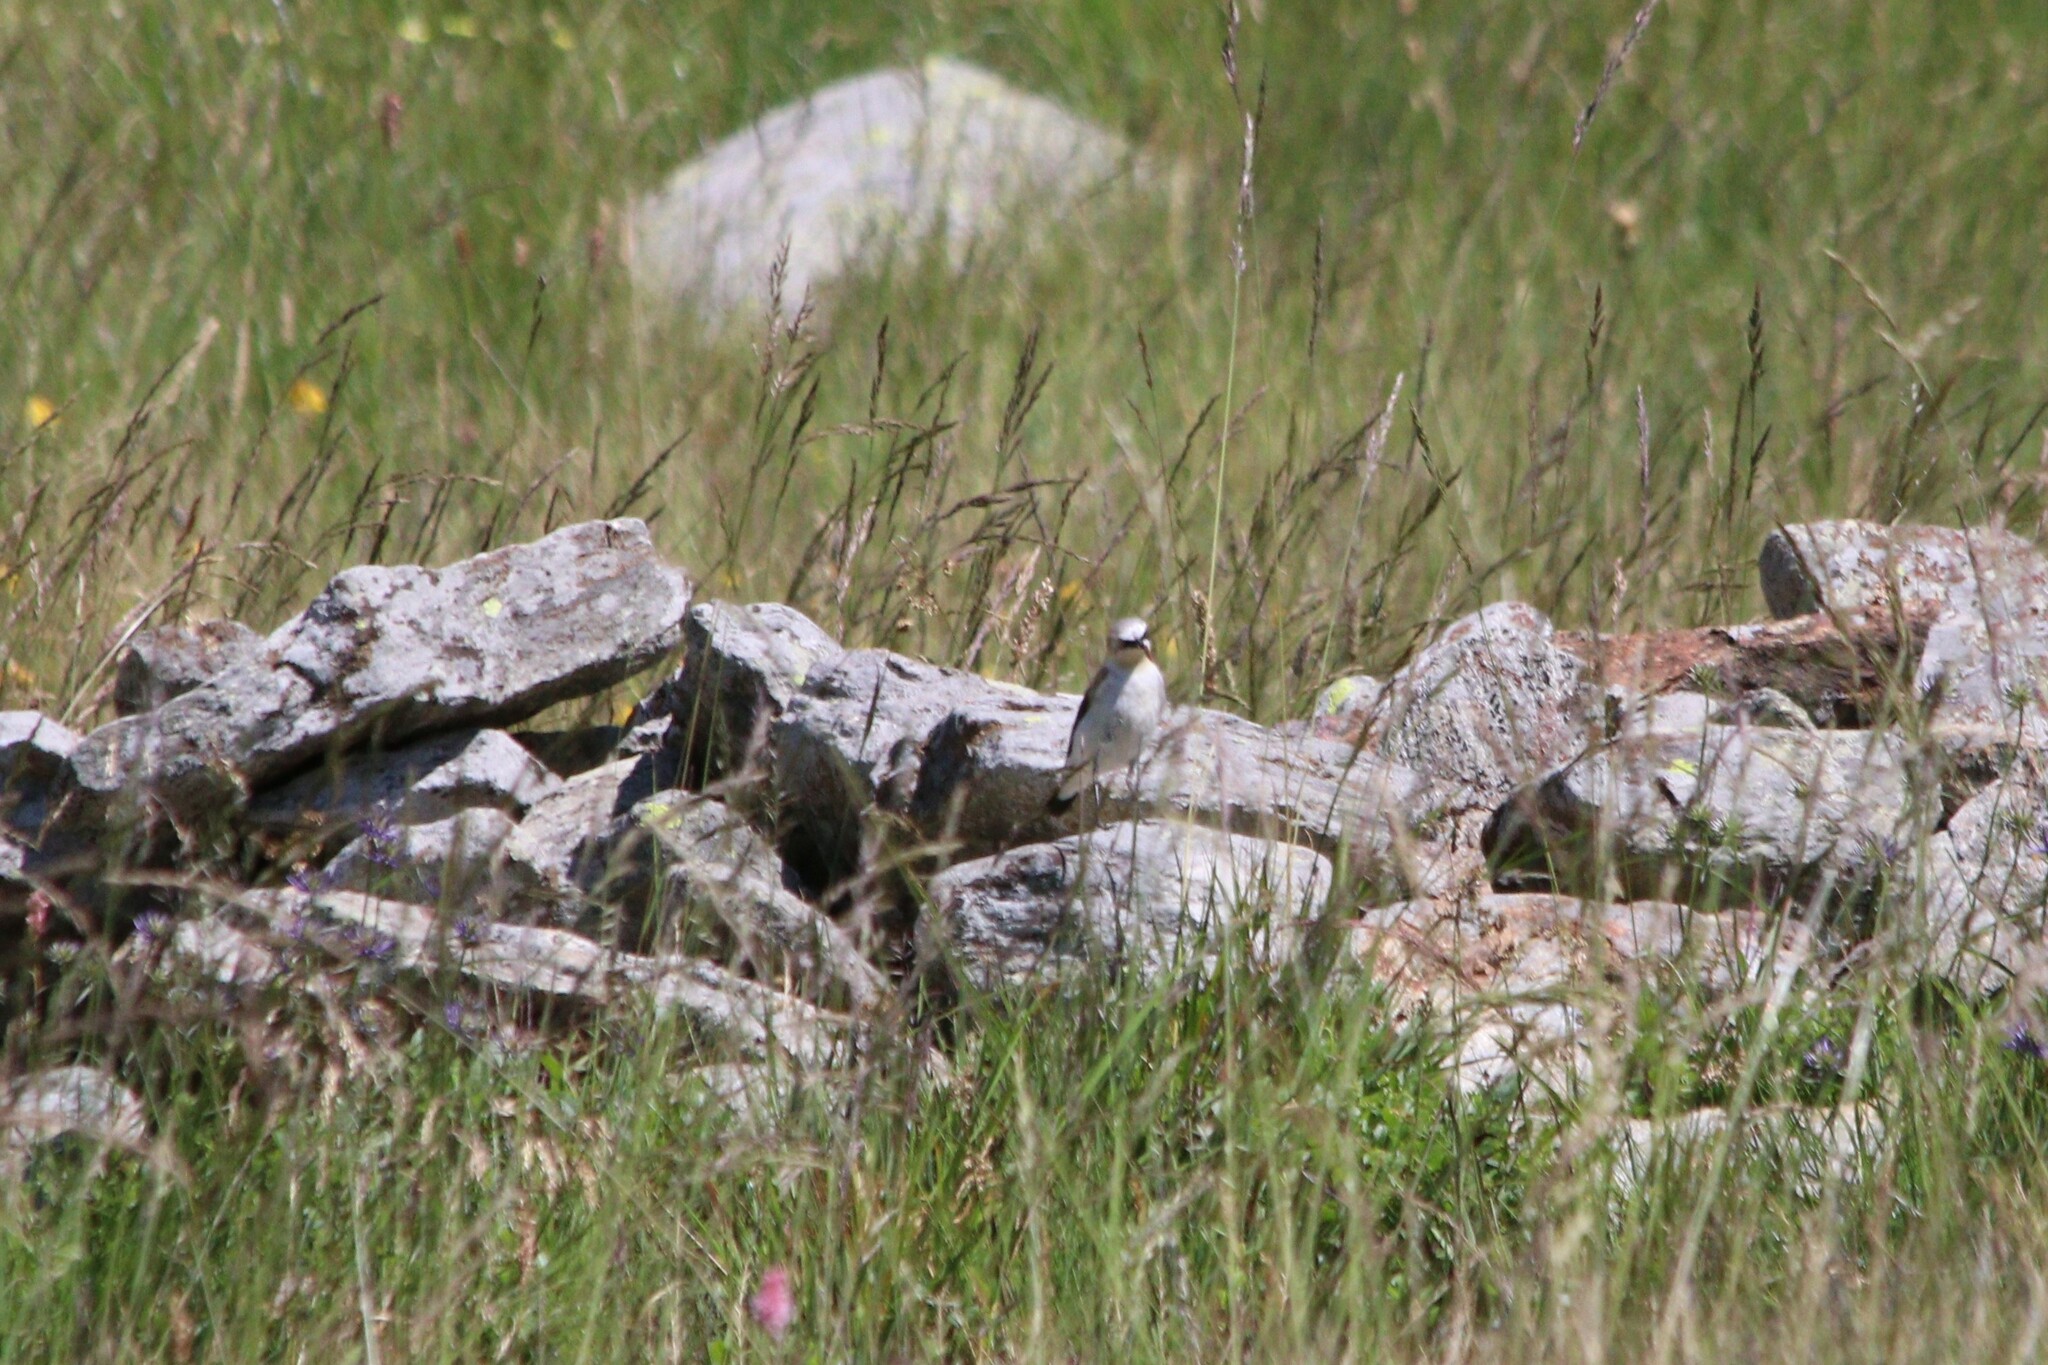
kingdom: Animalia
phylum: Chordata
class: Aves
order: Passeriformes
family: Muscicapidae
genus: Oenanthe
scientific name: Oenanthe oenanthe
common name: Northern wheatear
